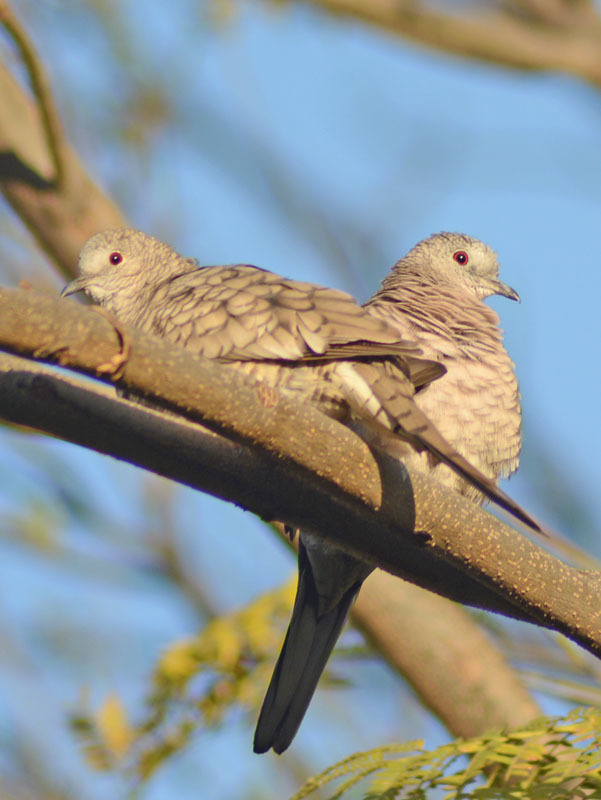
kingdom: Animalia
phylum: Chordata
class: Aves
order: Columbiformes
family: Columbidae
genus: Columbina
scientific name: Columbina inca
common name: Inca dove
